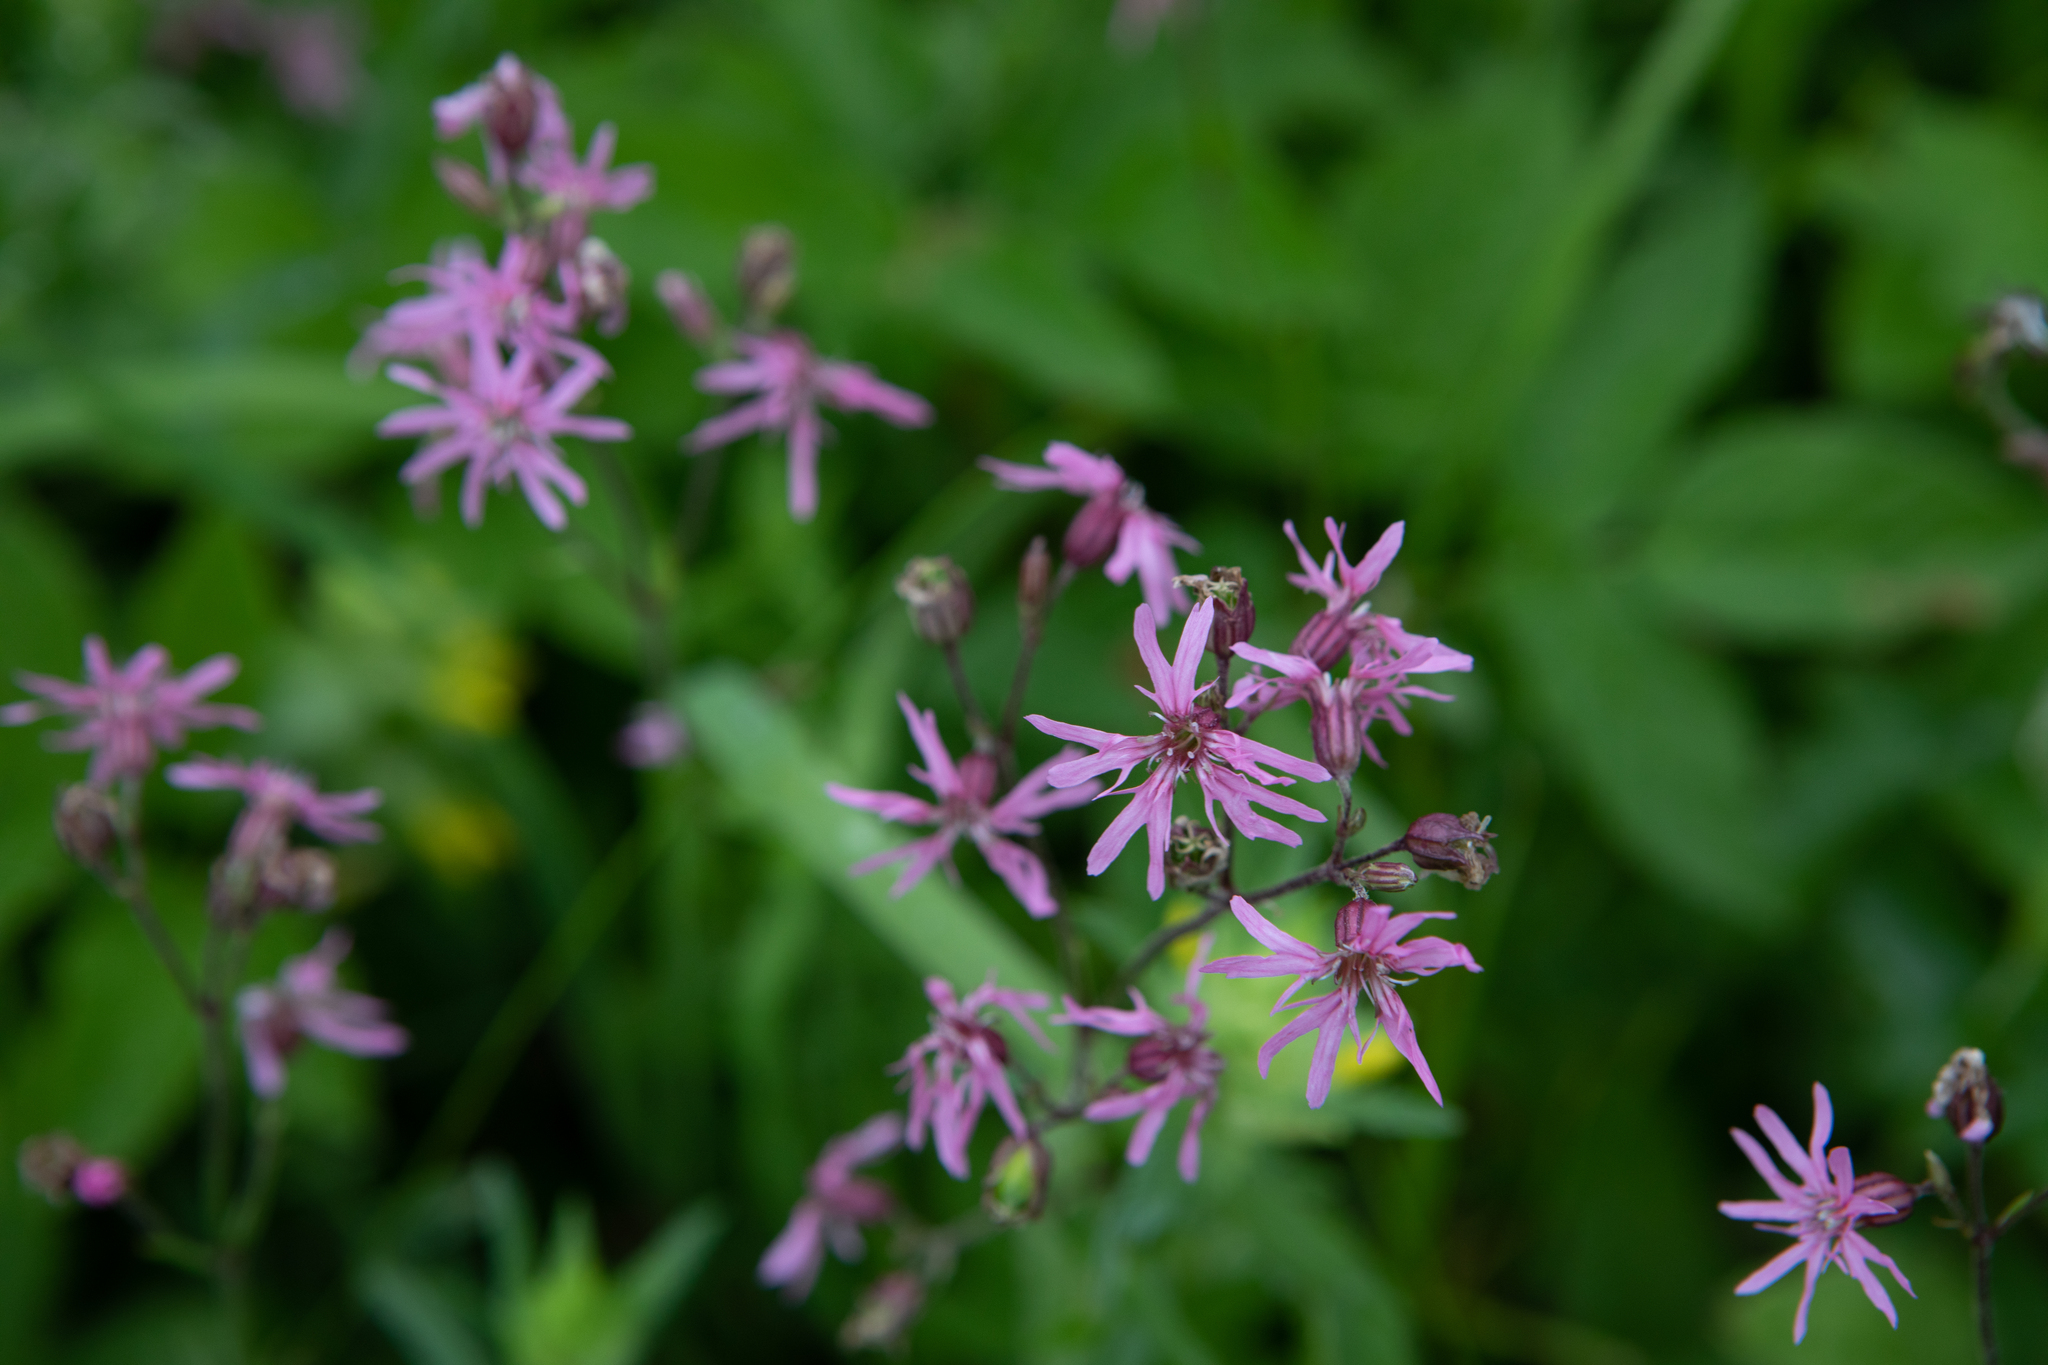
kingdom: Plantae
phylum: Tracheophyta
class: Magnoliopsida
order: Caryophyllales
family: Caryophyllaceae
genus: Silene
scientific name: Silene flos-cuculi
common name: Ragged-robin
